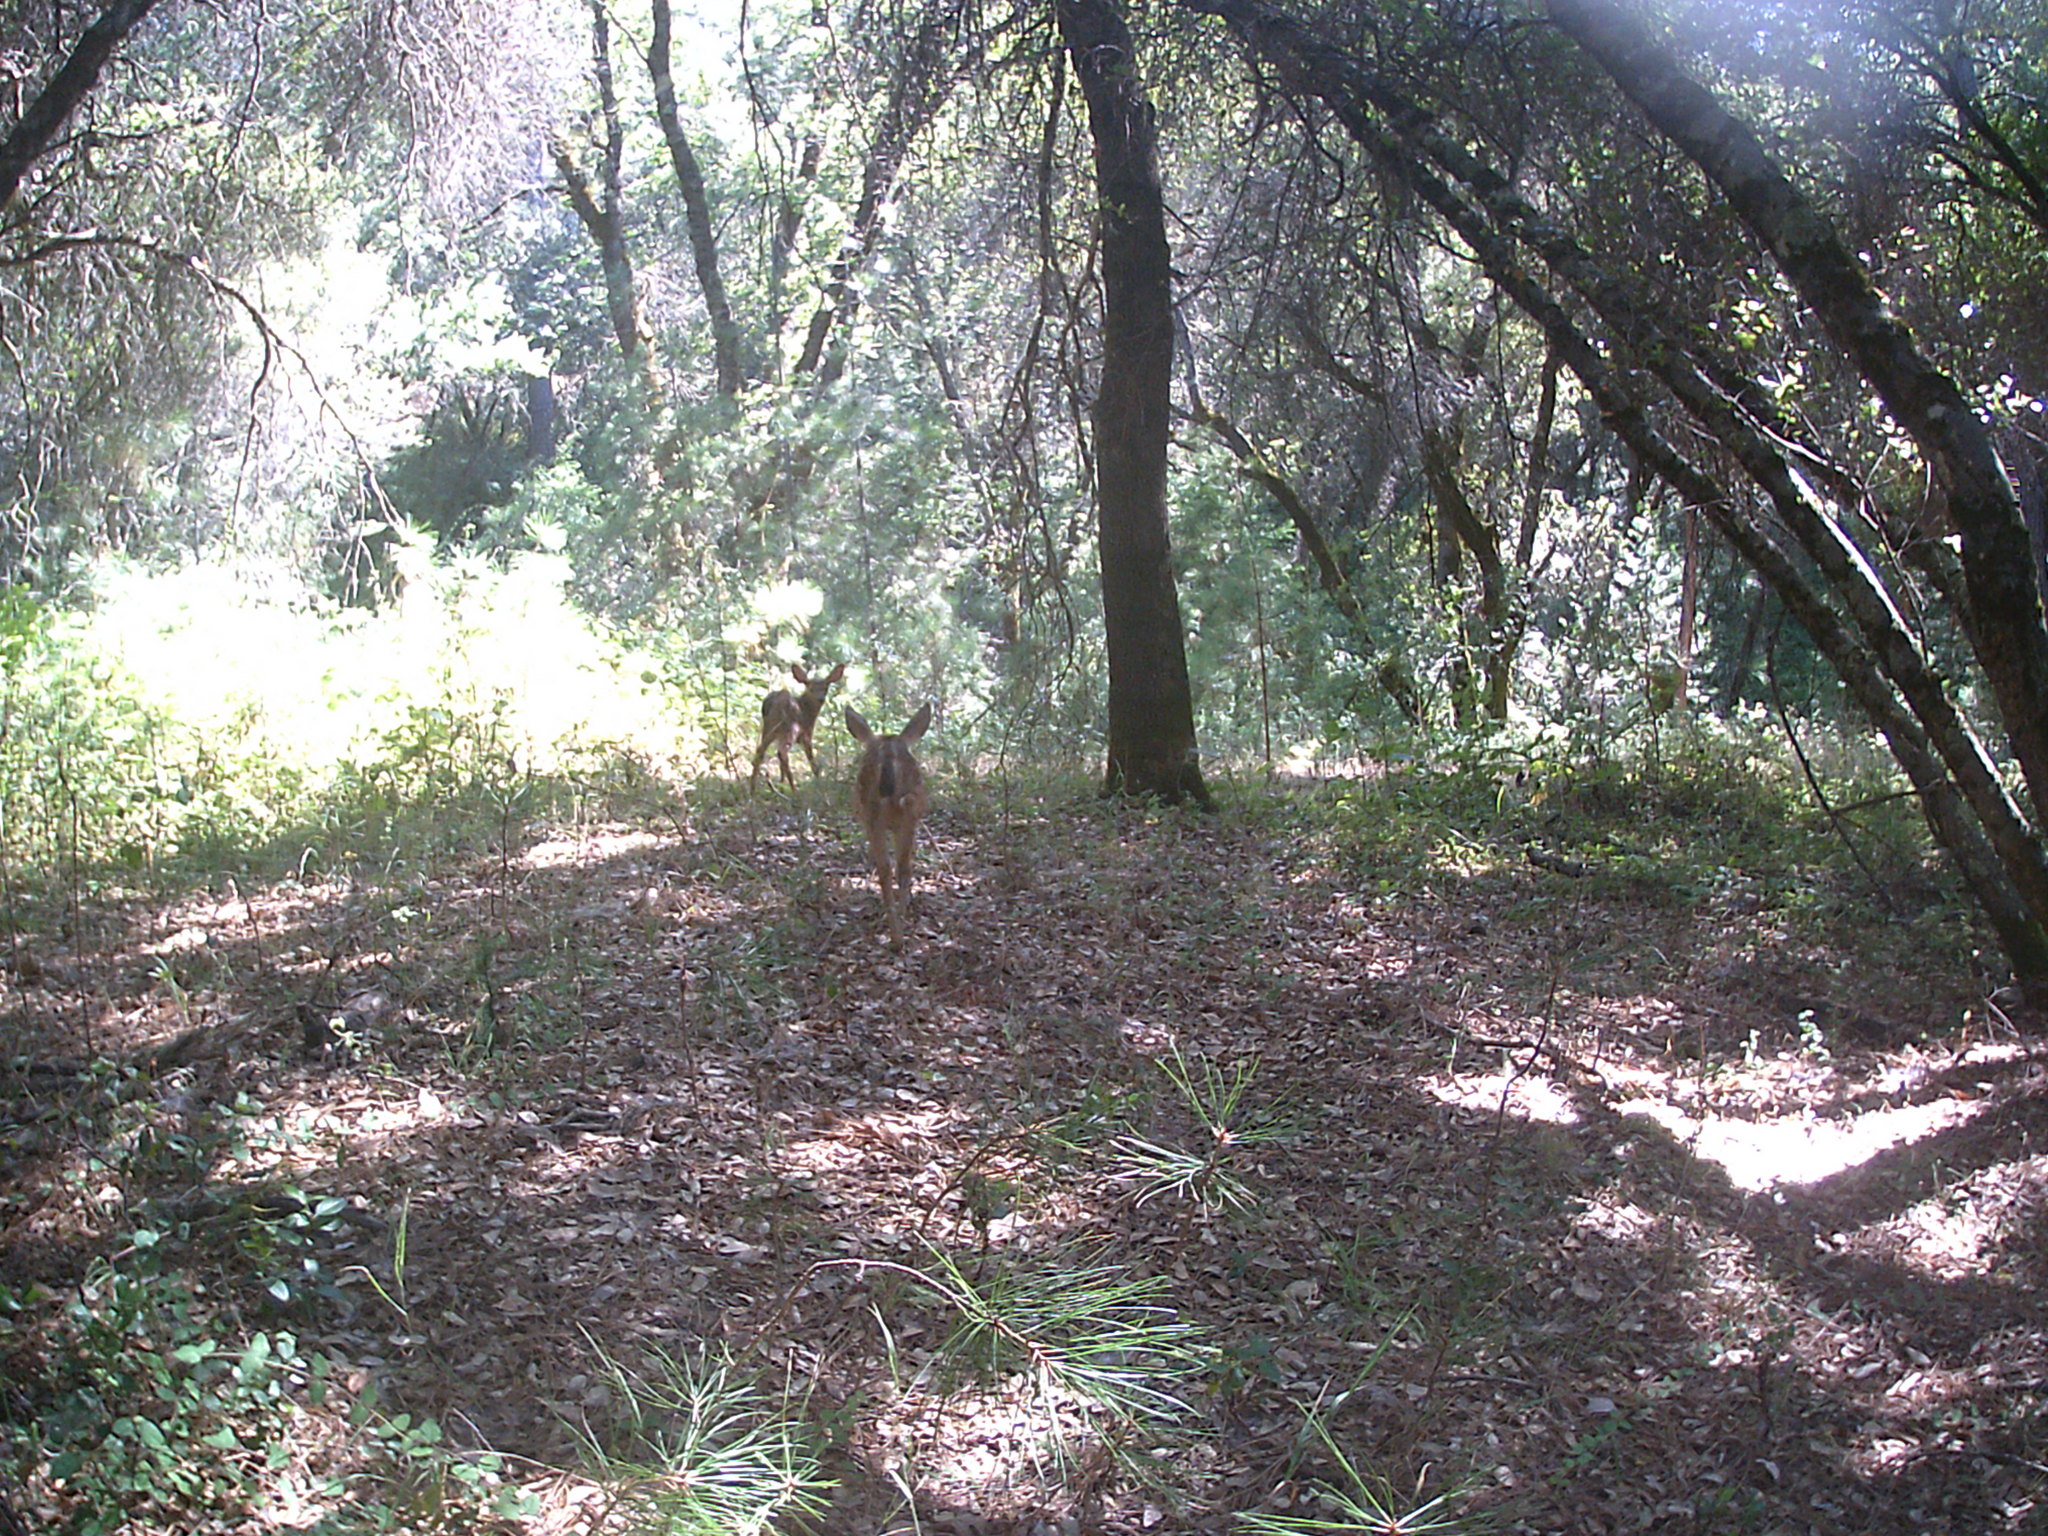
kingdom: Animalia
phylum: Chordata
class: Mammalia
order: Artiodactyla
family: Cervidae
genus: Odocoileus
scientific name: Odocoileus hemionus
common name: Mule deer
